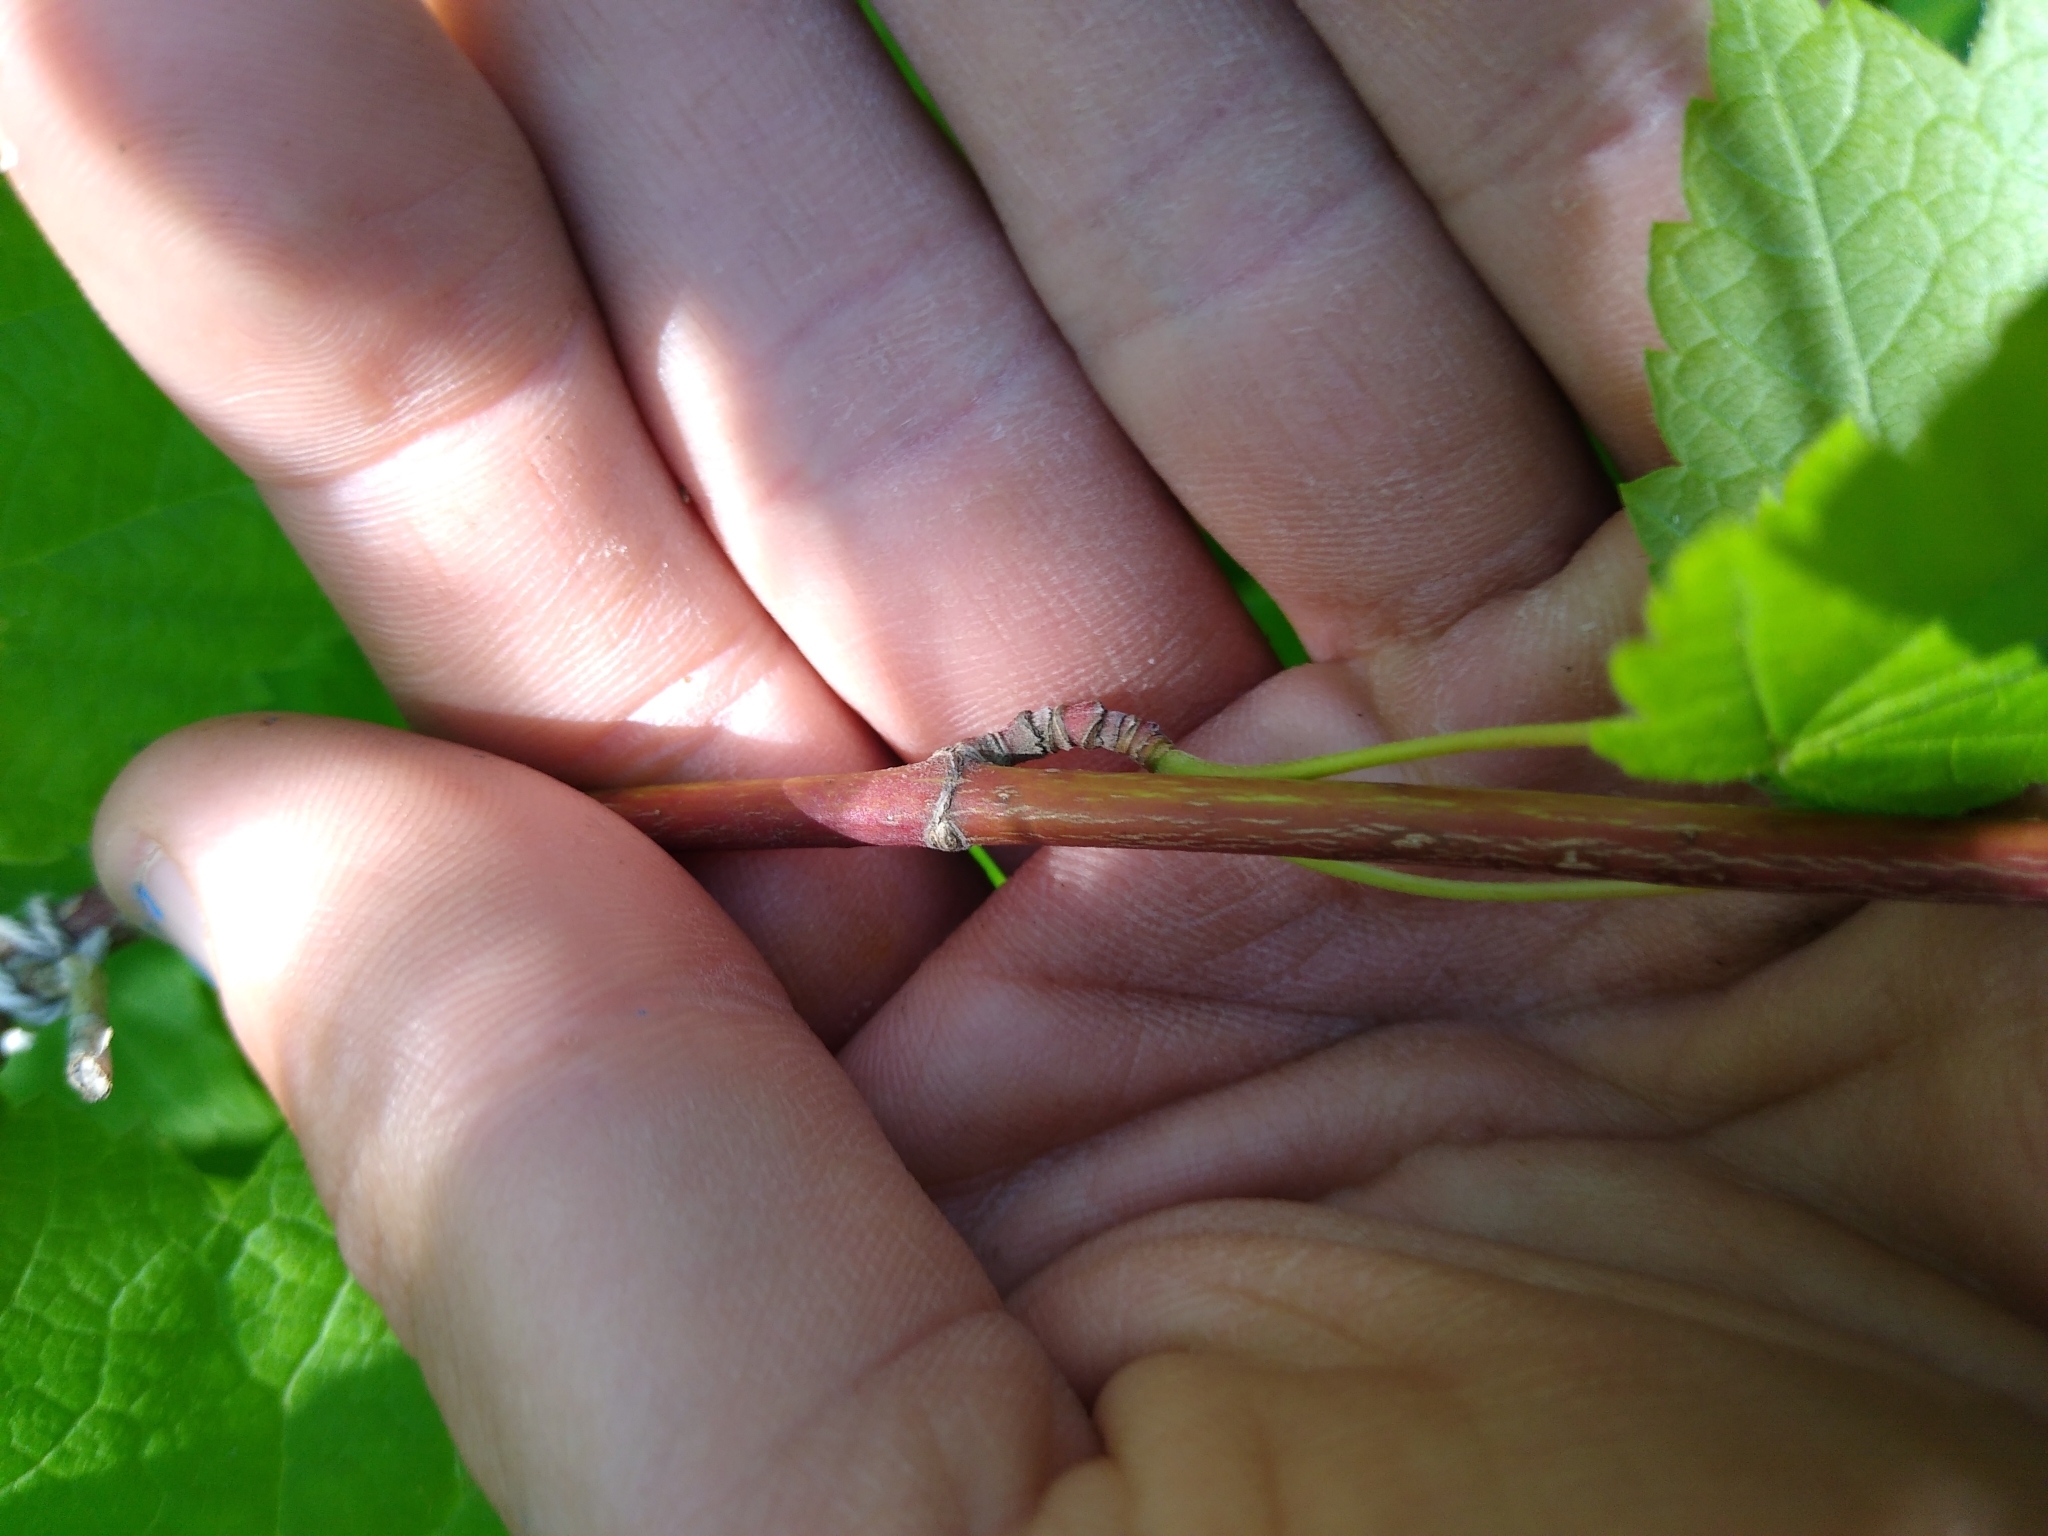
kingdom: Plantae
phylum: Tracheophyta
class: Magnoliopsida
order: Sapindales
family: Sapindaceae
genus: Acer
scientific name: Acer spicatum
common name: Mountain maple
